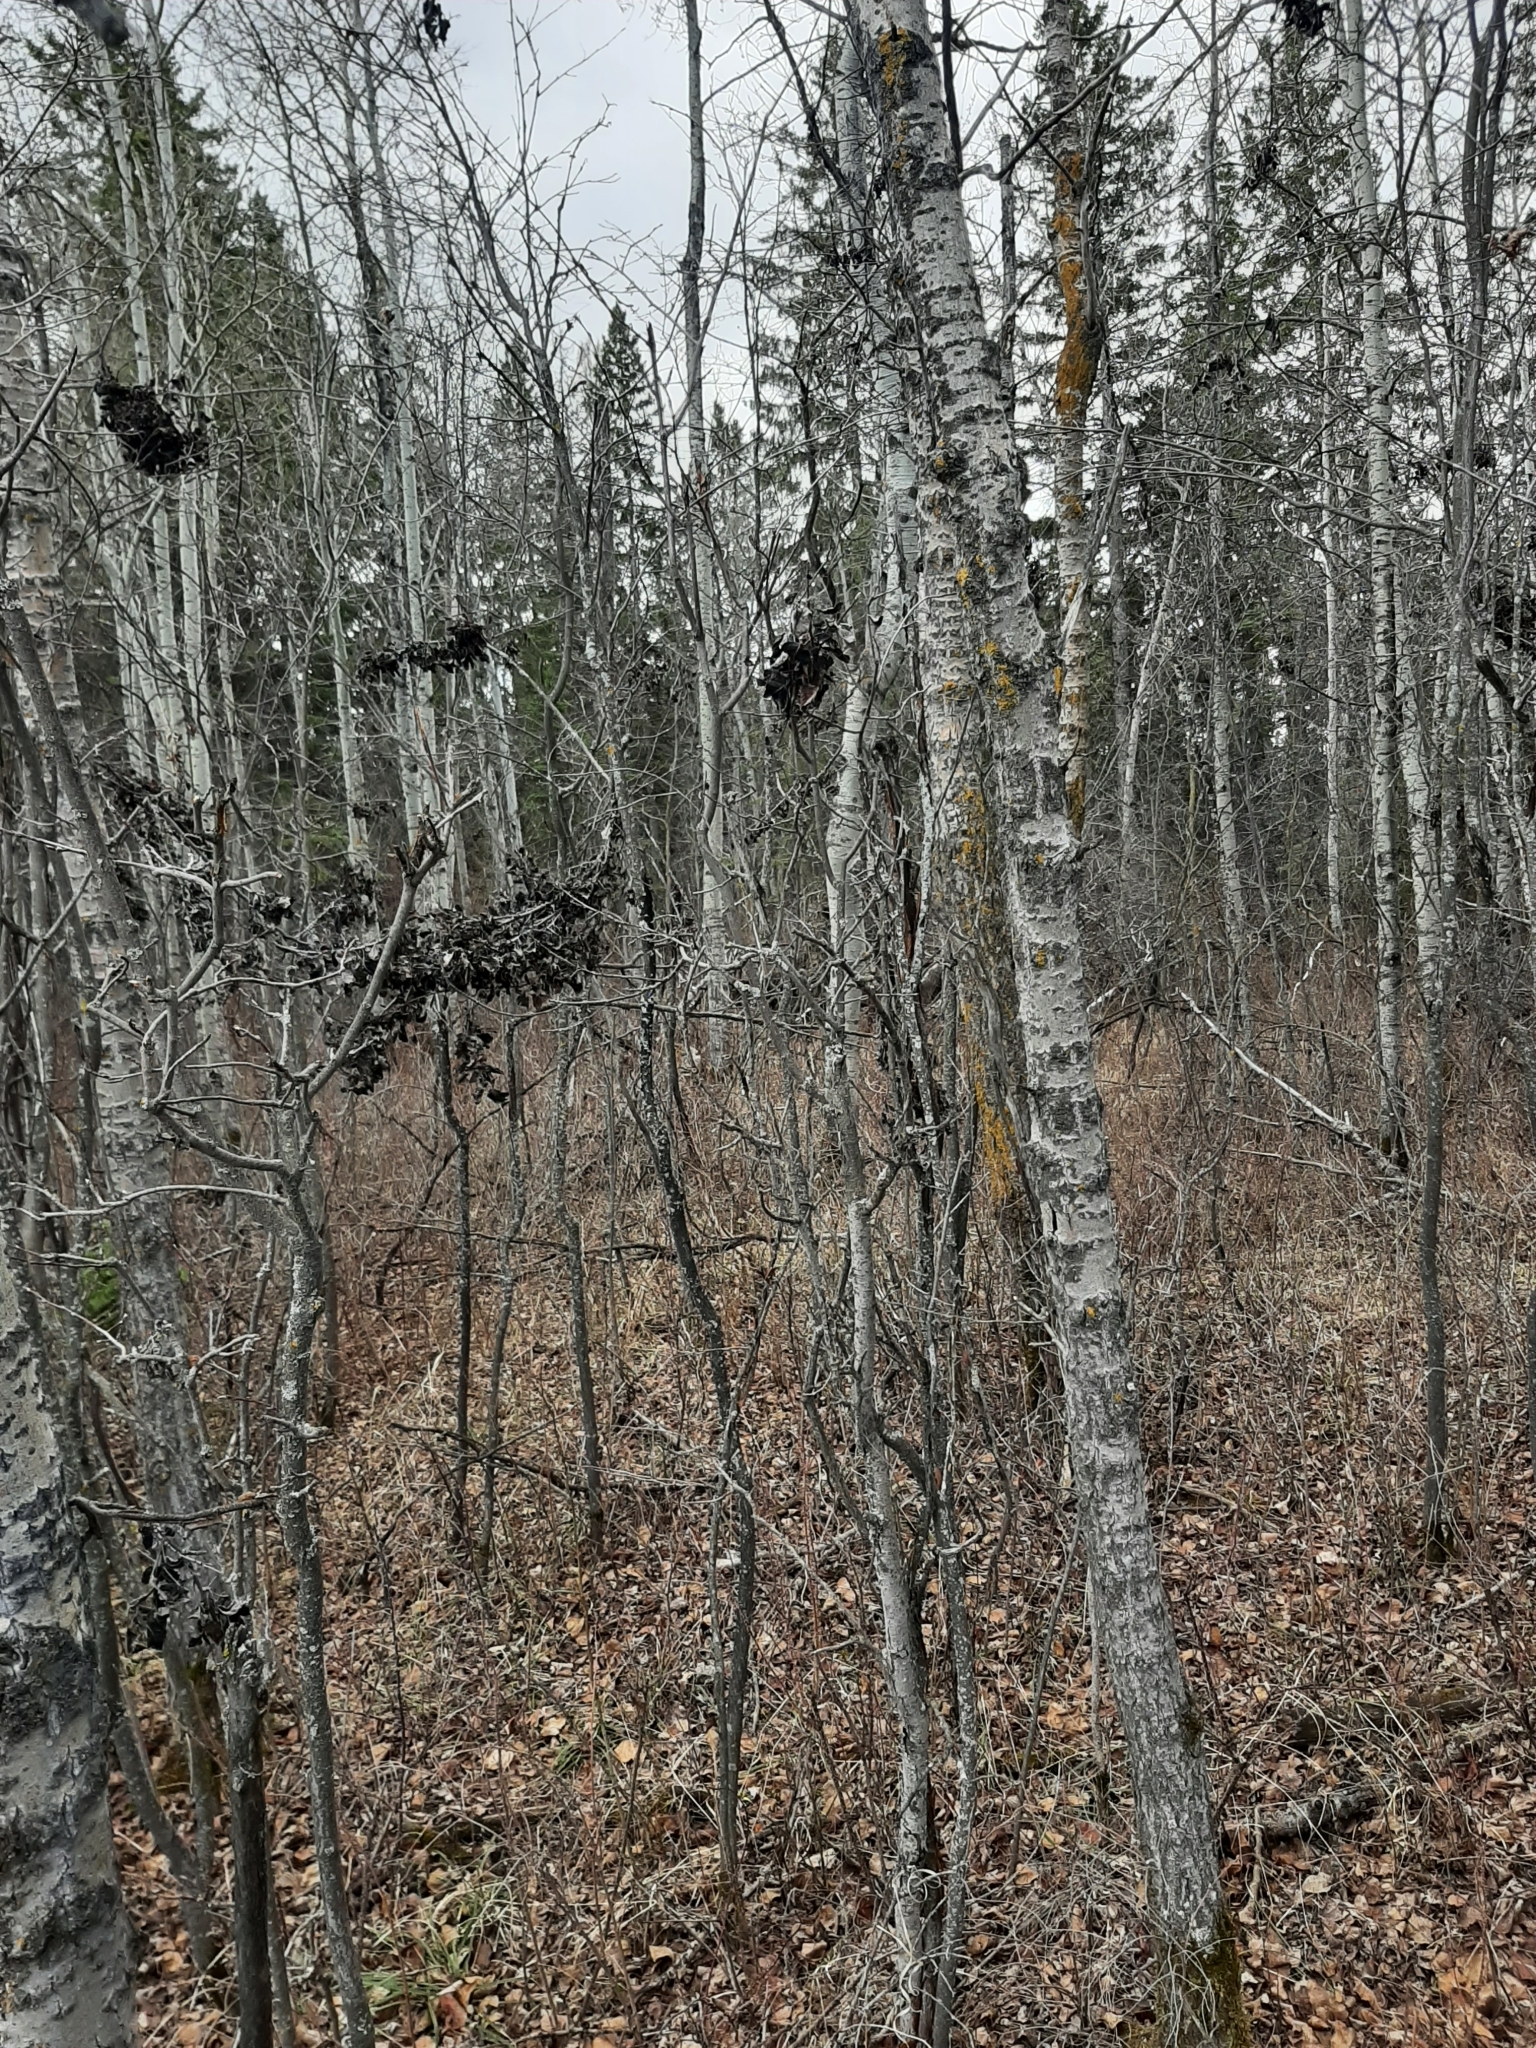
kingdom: Fungi
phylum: Ascomycota
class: Dothideomycetes
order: Venturiales
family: Venturiaceae
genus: Apiosporina
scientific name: Apiosporina collinsii
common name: Black leaf
